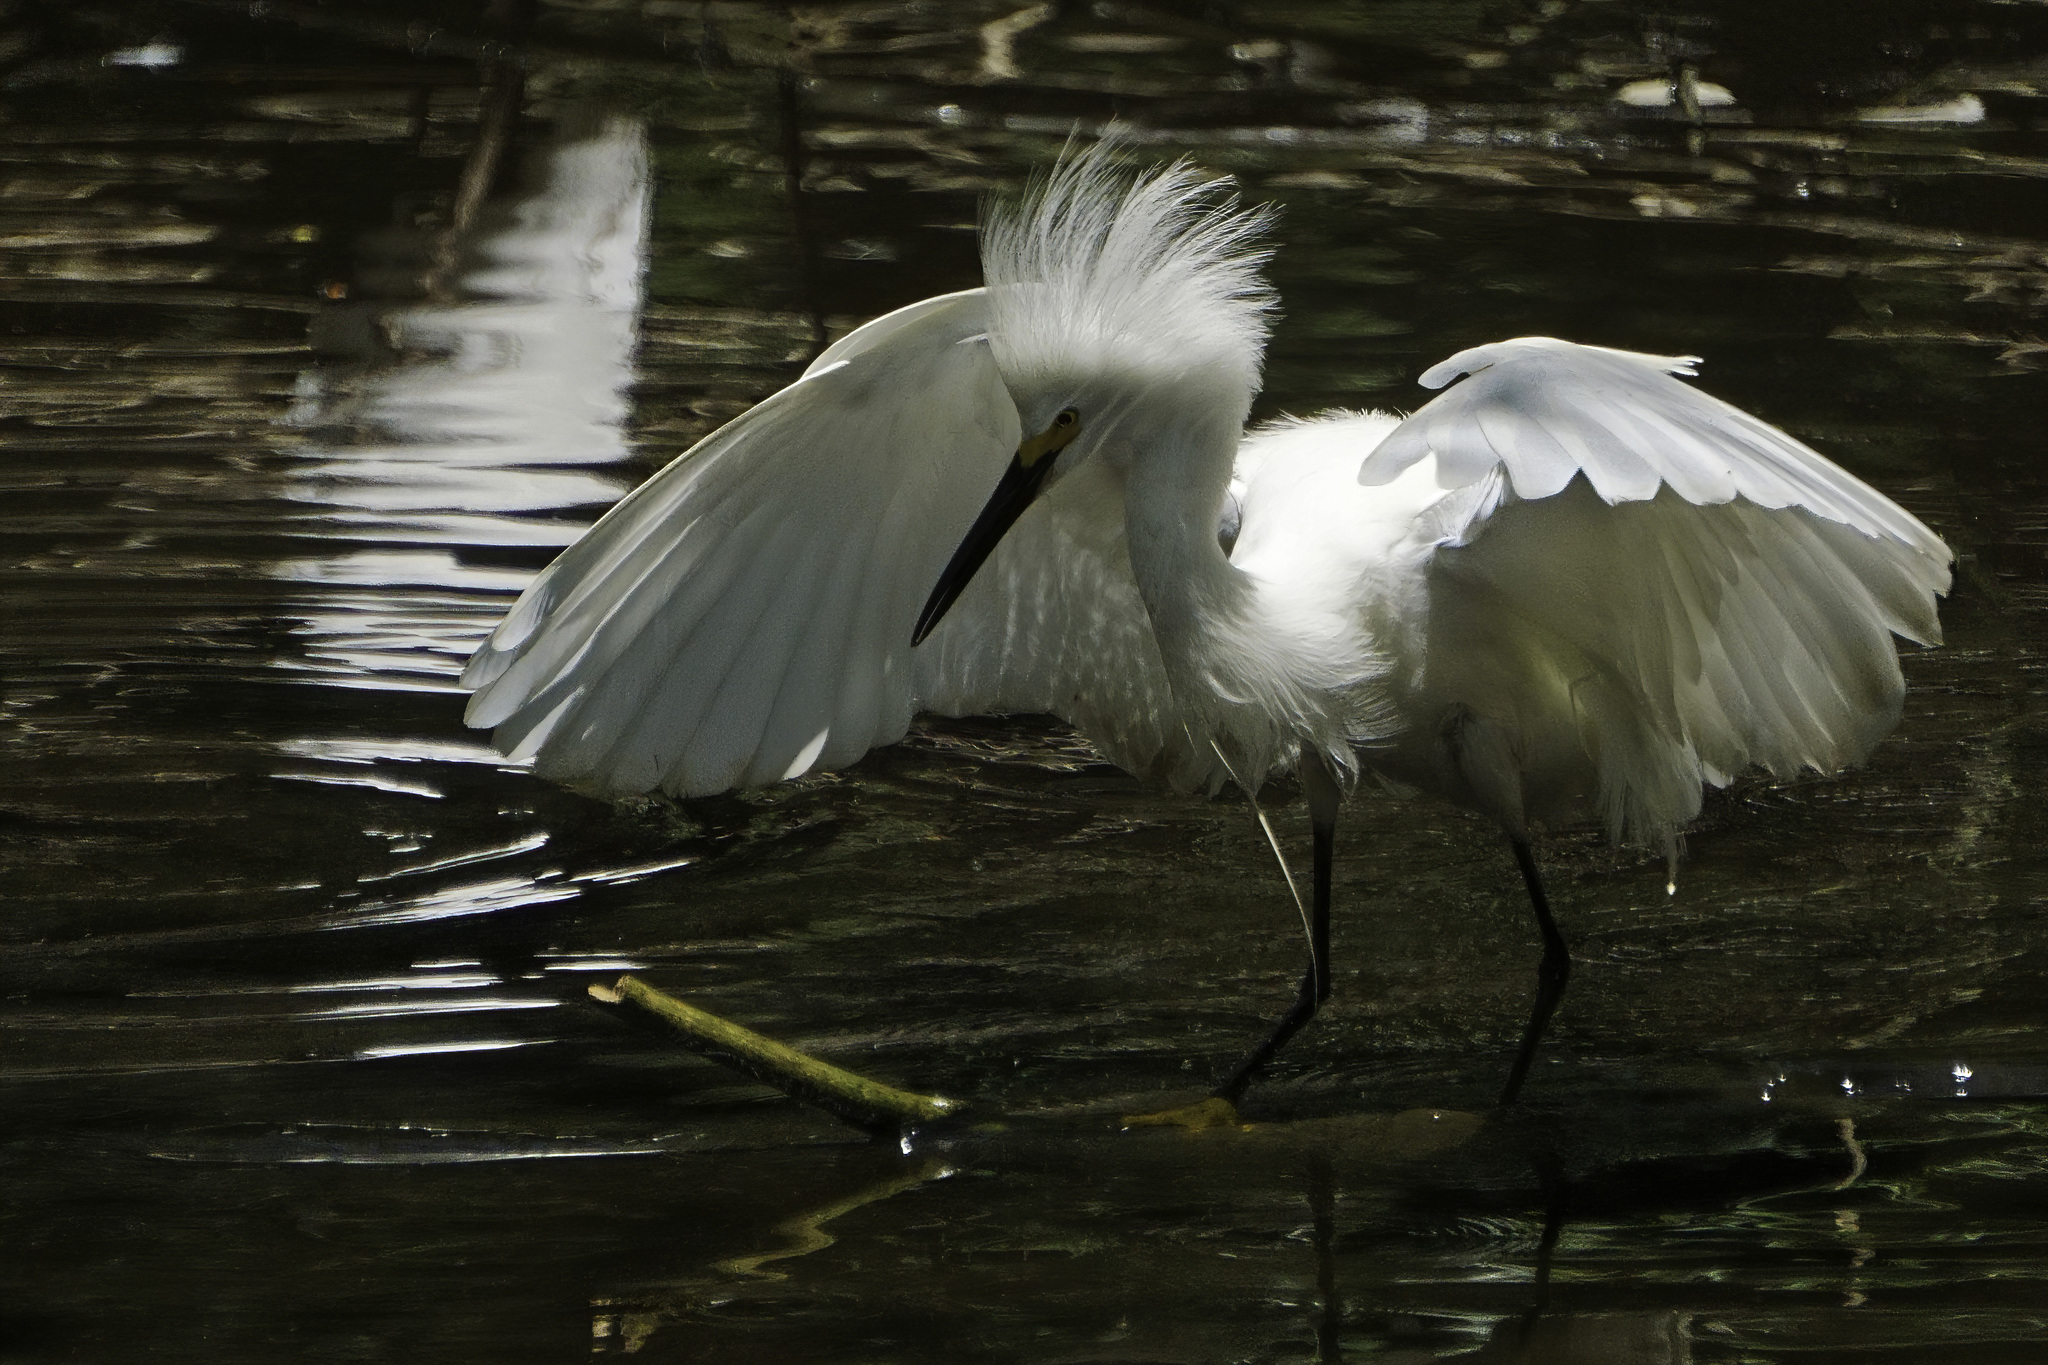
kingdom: Animalia
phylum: Chordata
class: Aves
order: Pelecaniformes
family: Ardeidae
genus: Egretta
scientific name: Egretta thula
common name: Snowy egret
